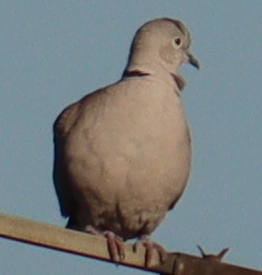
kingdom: Animalia
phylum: Chordata
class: Aves
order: Columbiformes
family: Columbidae
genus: Streptopelia
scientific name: Streptopelia decaocto
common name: Eurasian collared dove
